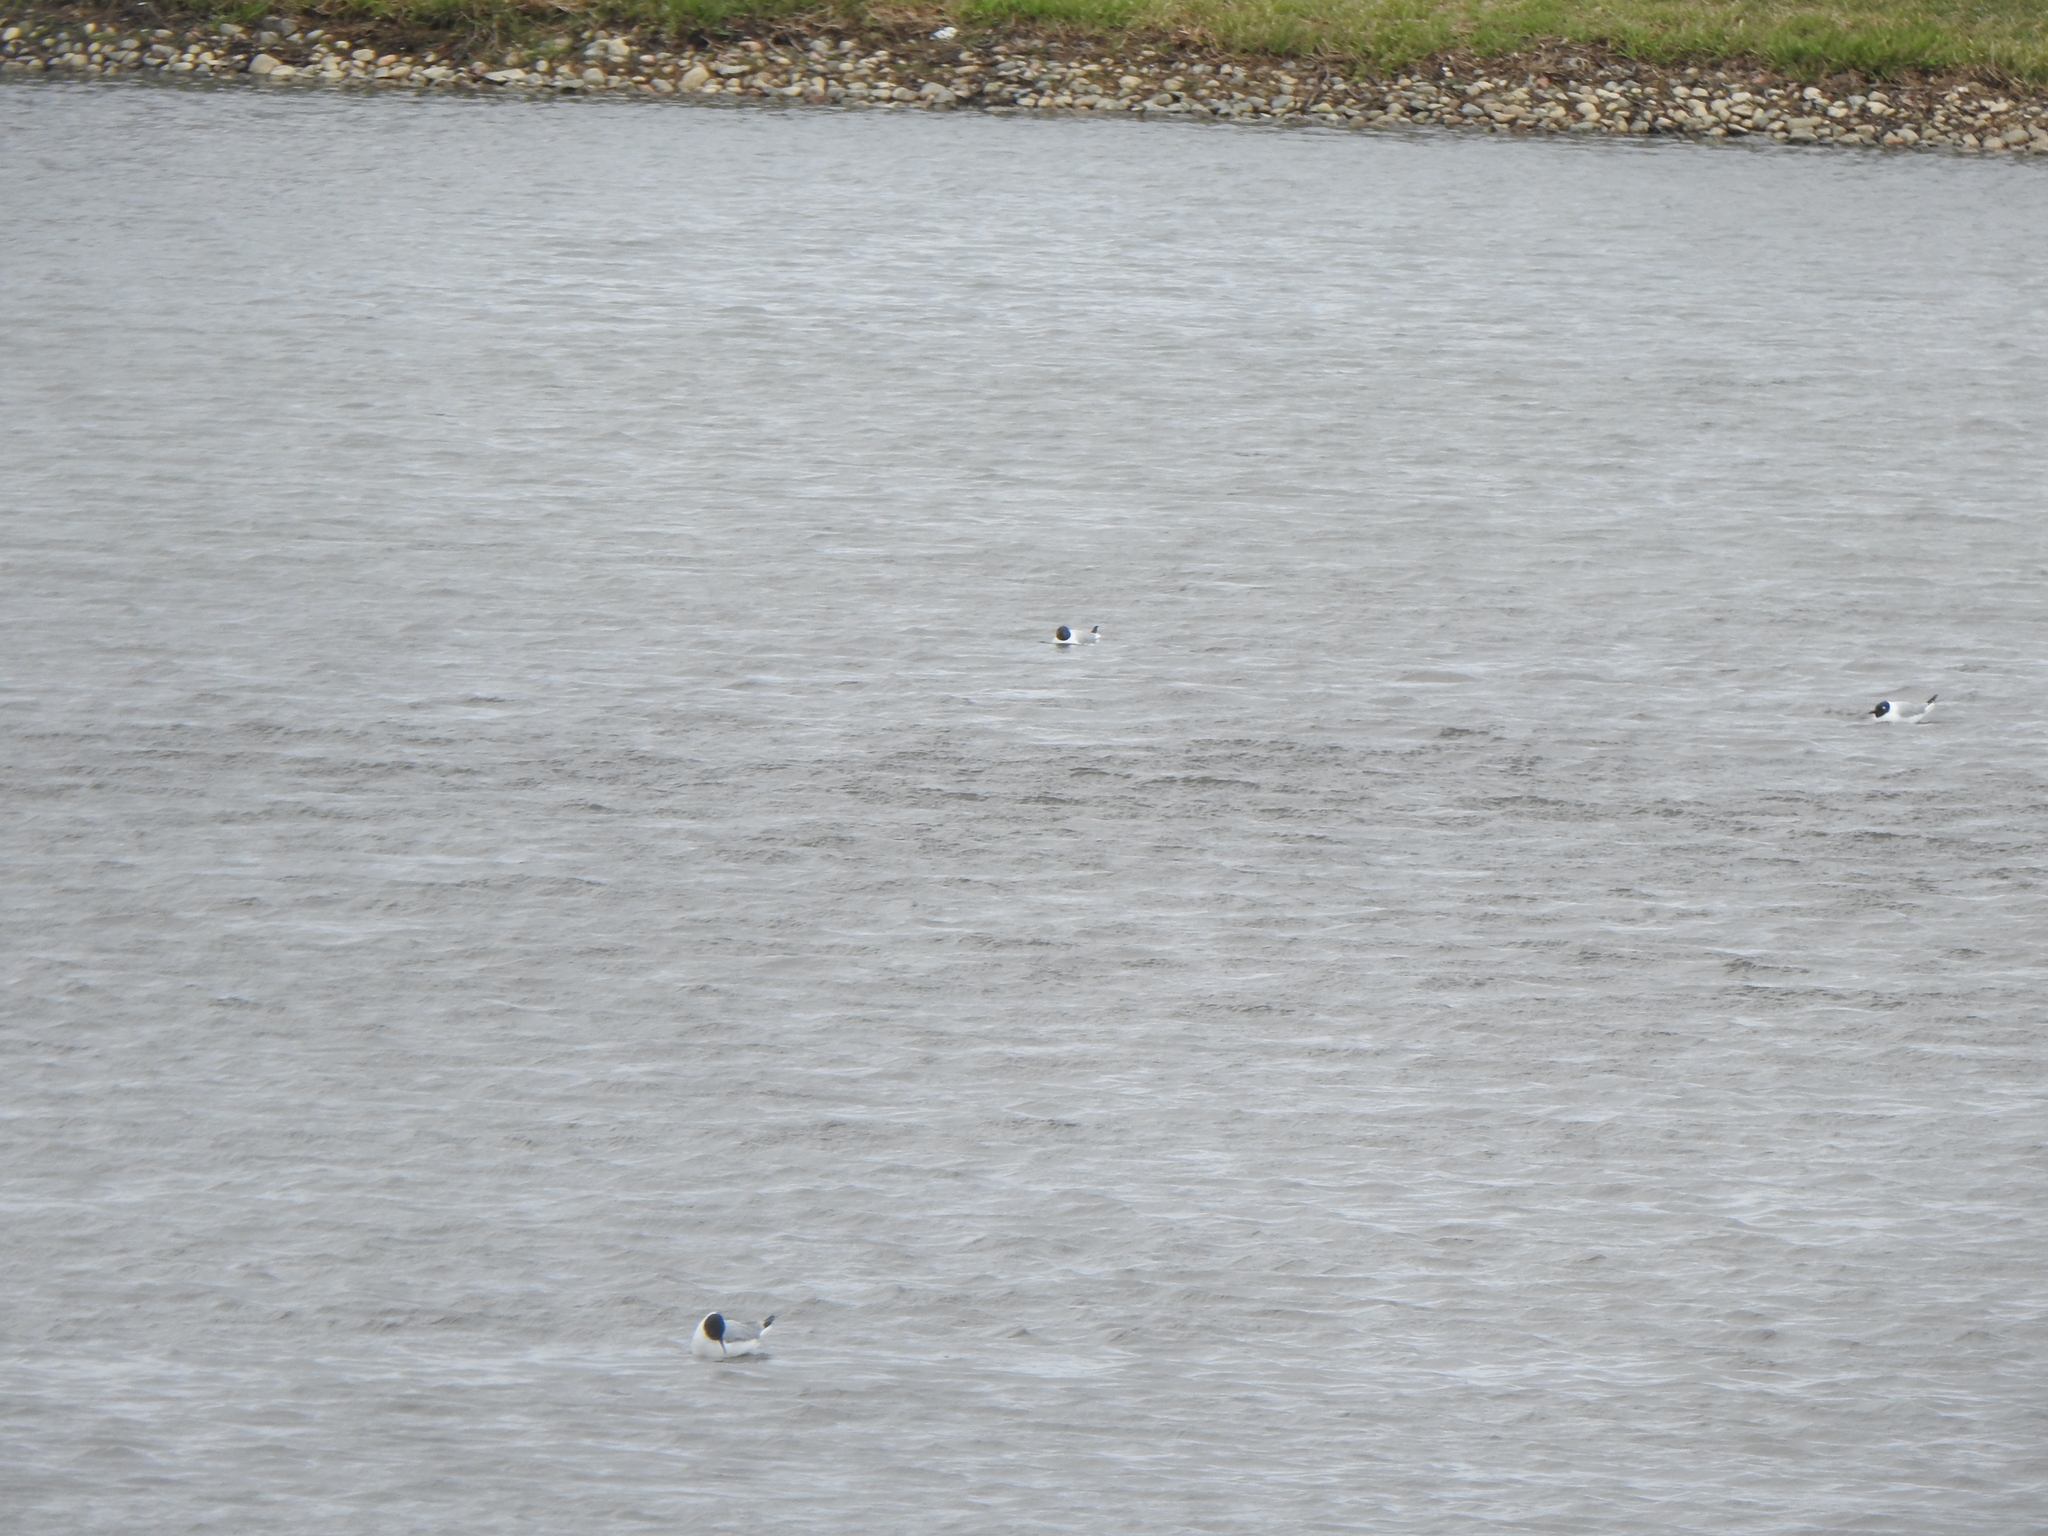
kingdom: Animalia
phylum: Chordata
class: Aves
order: Charadriiformes
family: Laridae
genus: Leucophaeus
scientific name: Leucophaeus pipixcan
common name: Franklin's gull
